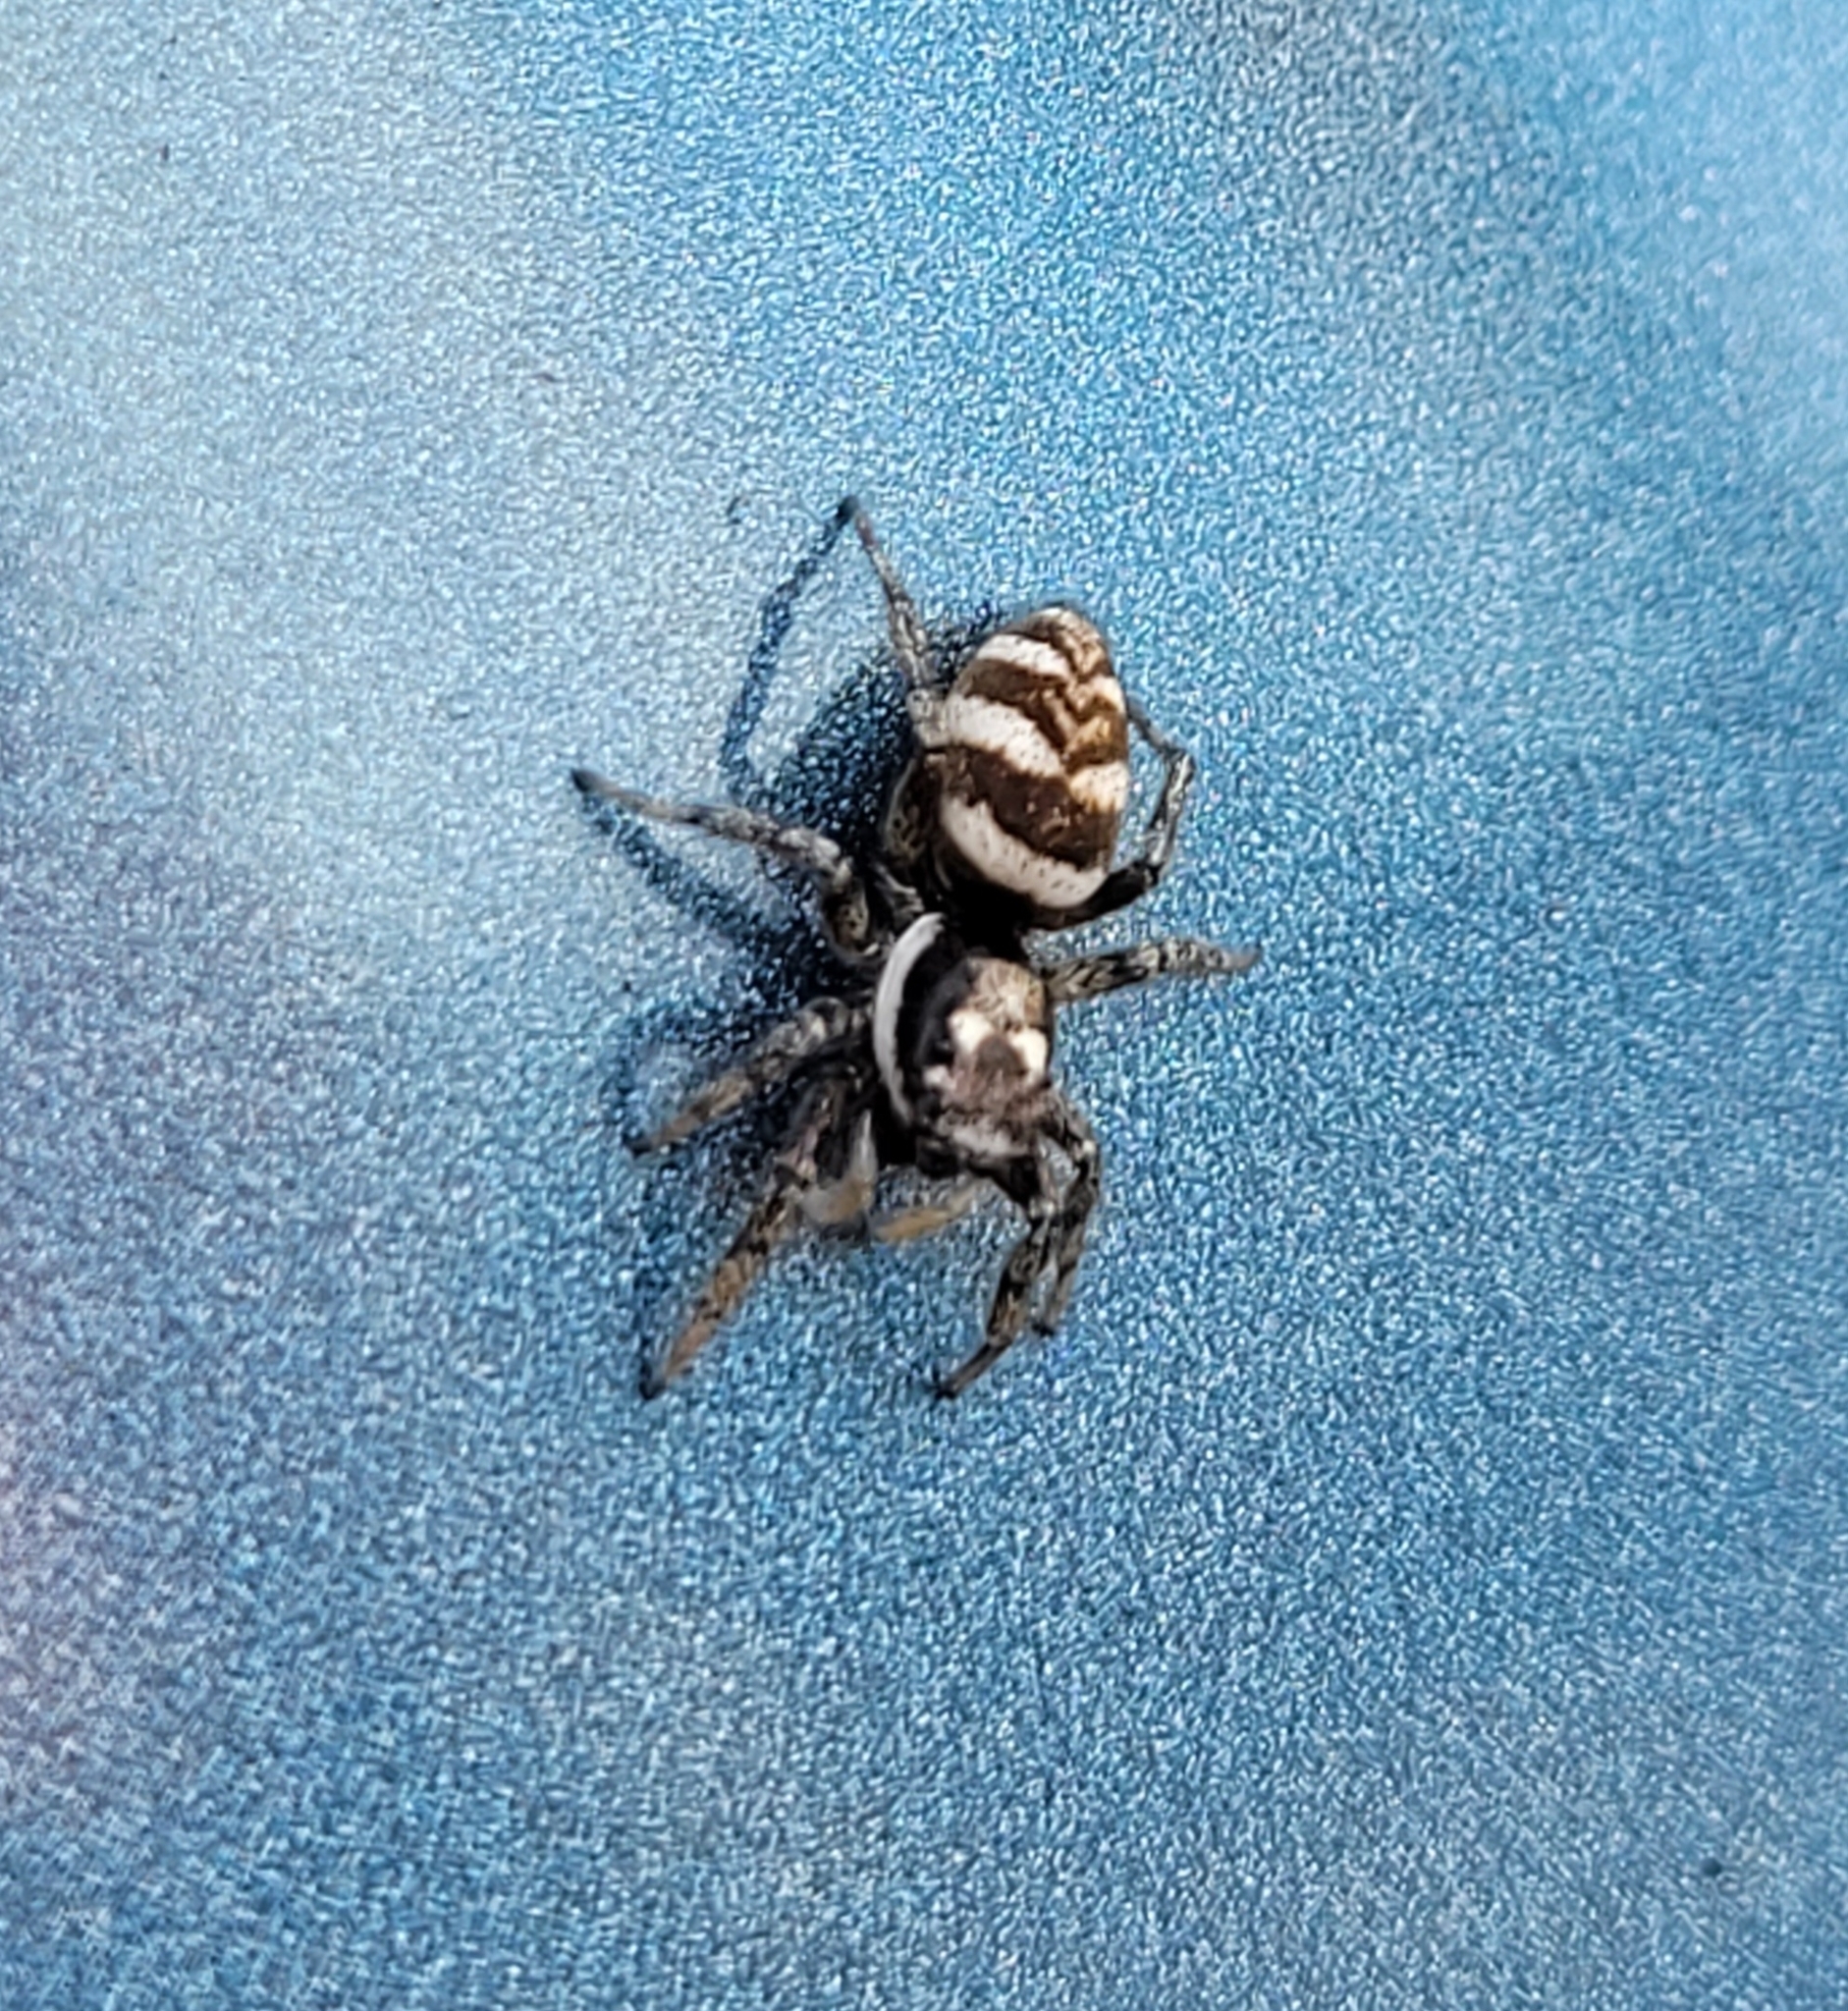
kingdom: Animalia
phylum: Arthropoda
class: Arachnida
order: Araneae
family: Salticidae
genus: Salticus
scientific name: Salticus scenicus
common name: Zebra jumper
